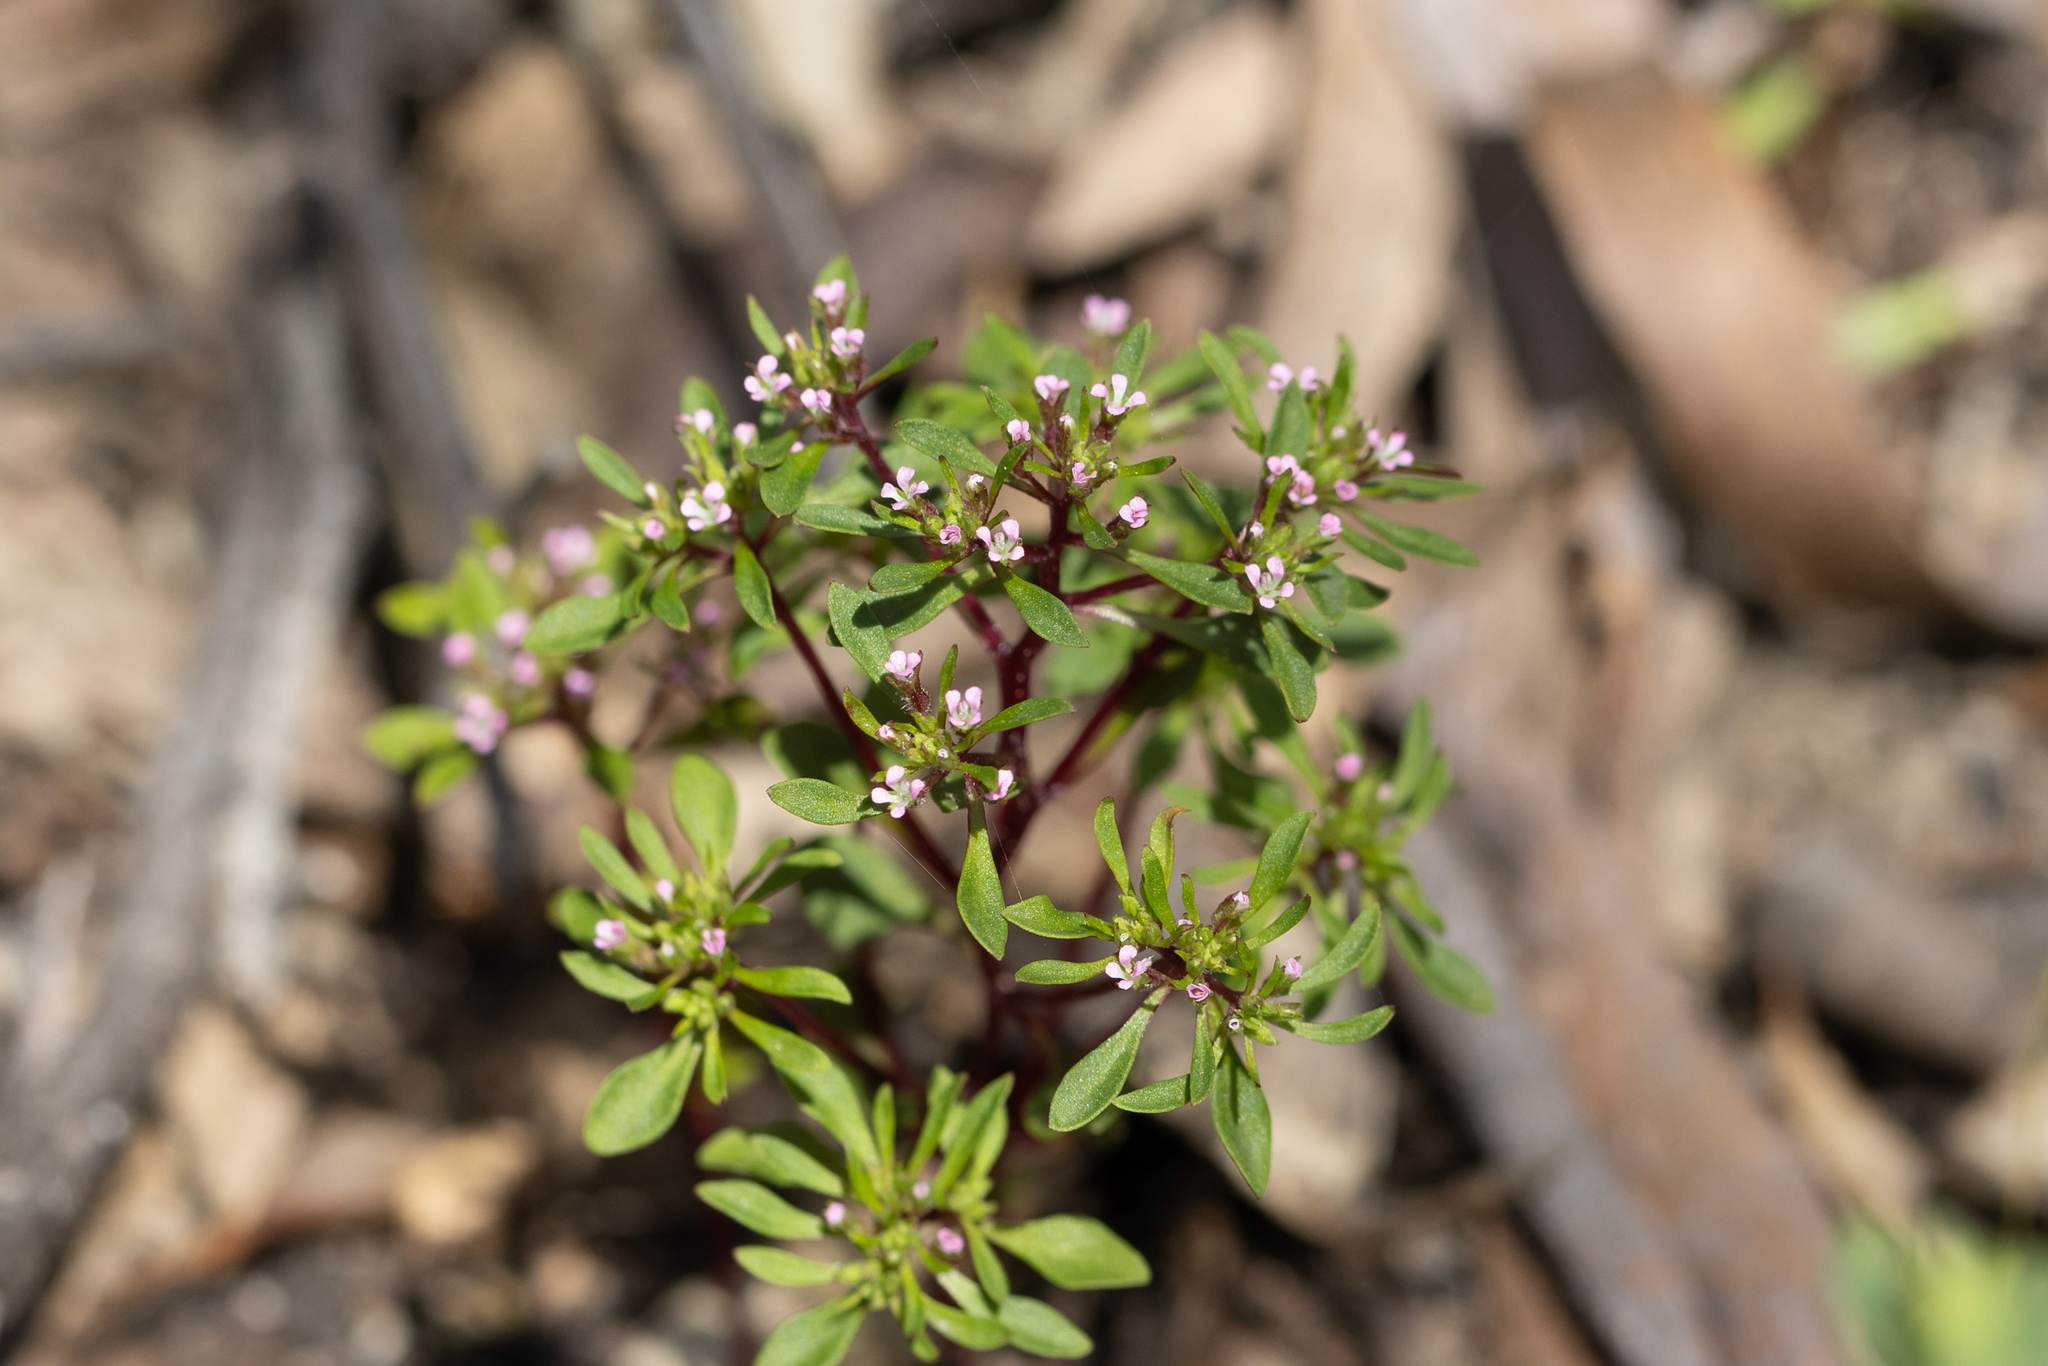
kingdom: Plantae
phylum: Tracheophyta
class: Magnoliopsida
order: Asterales
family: Stylidiaceae
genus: Levenhookia
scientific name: Levenhookia pusilla
